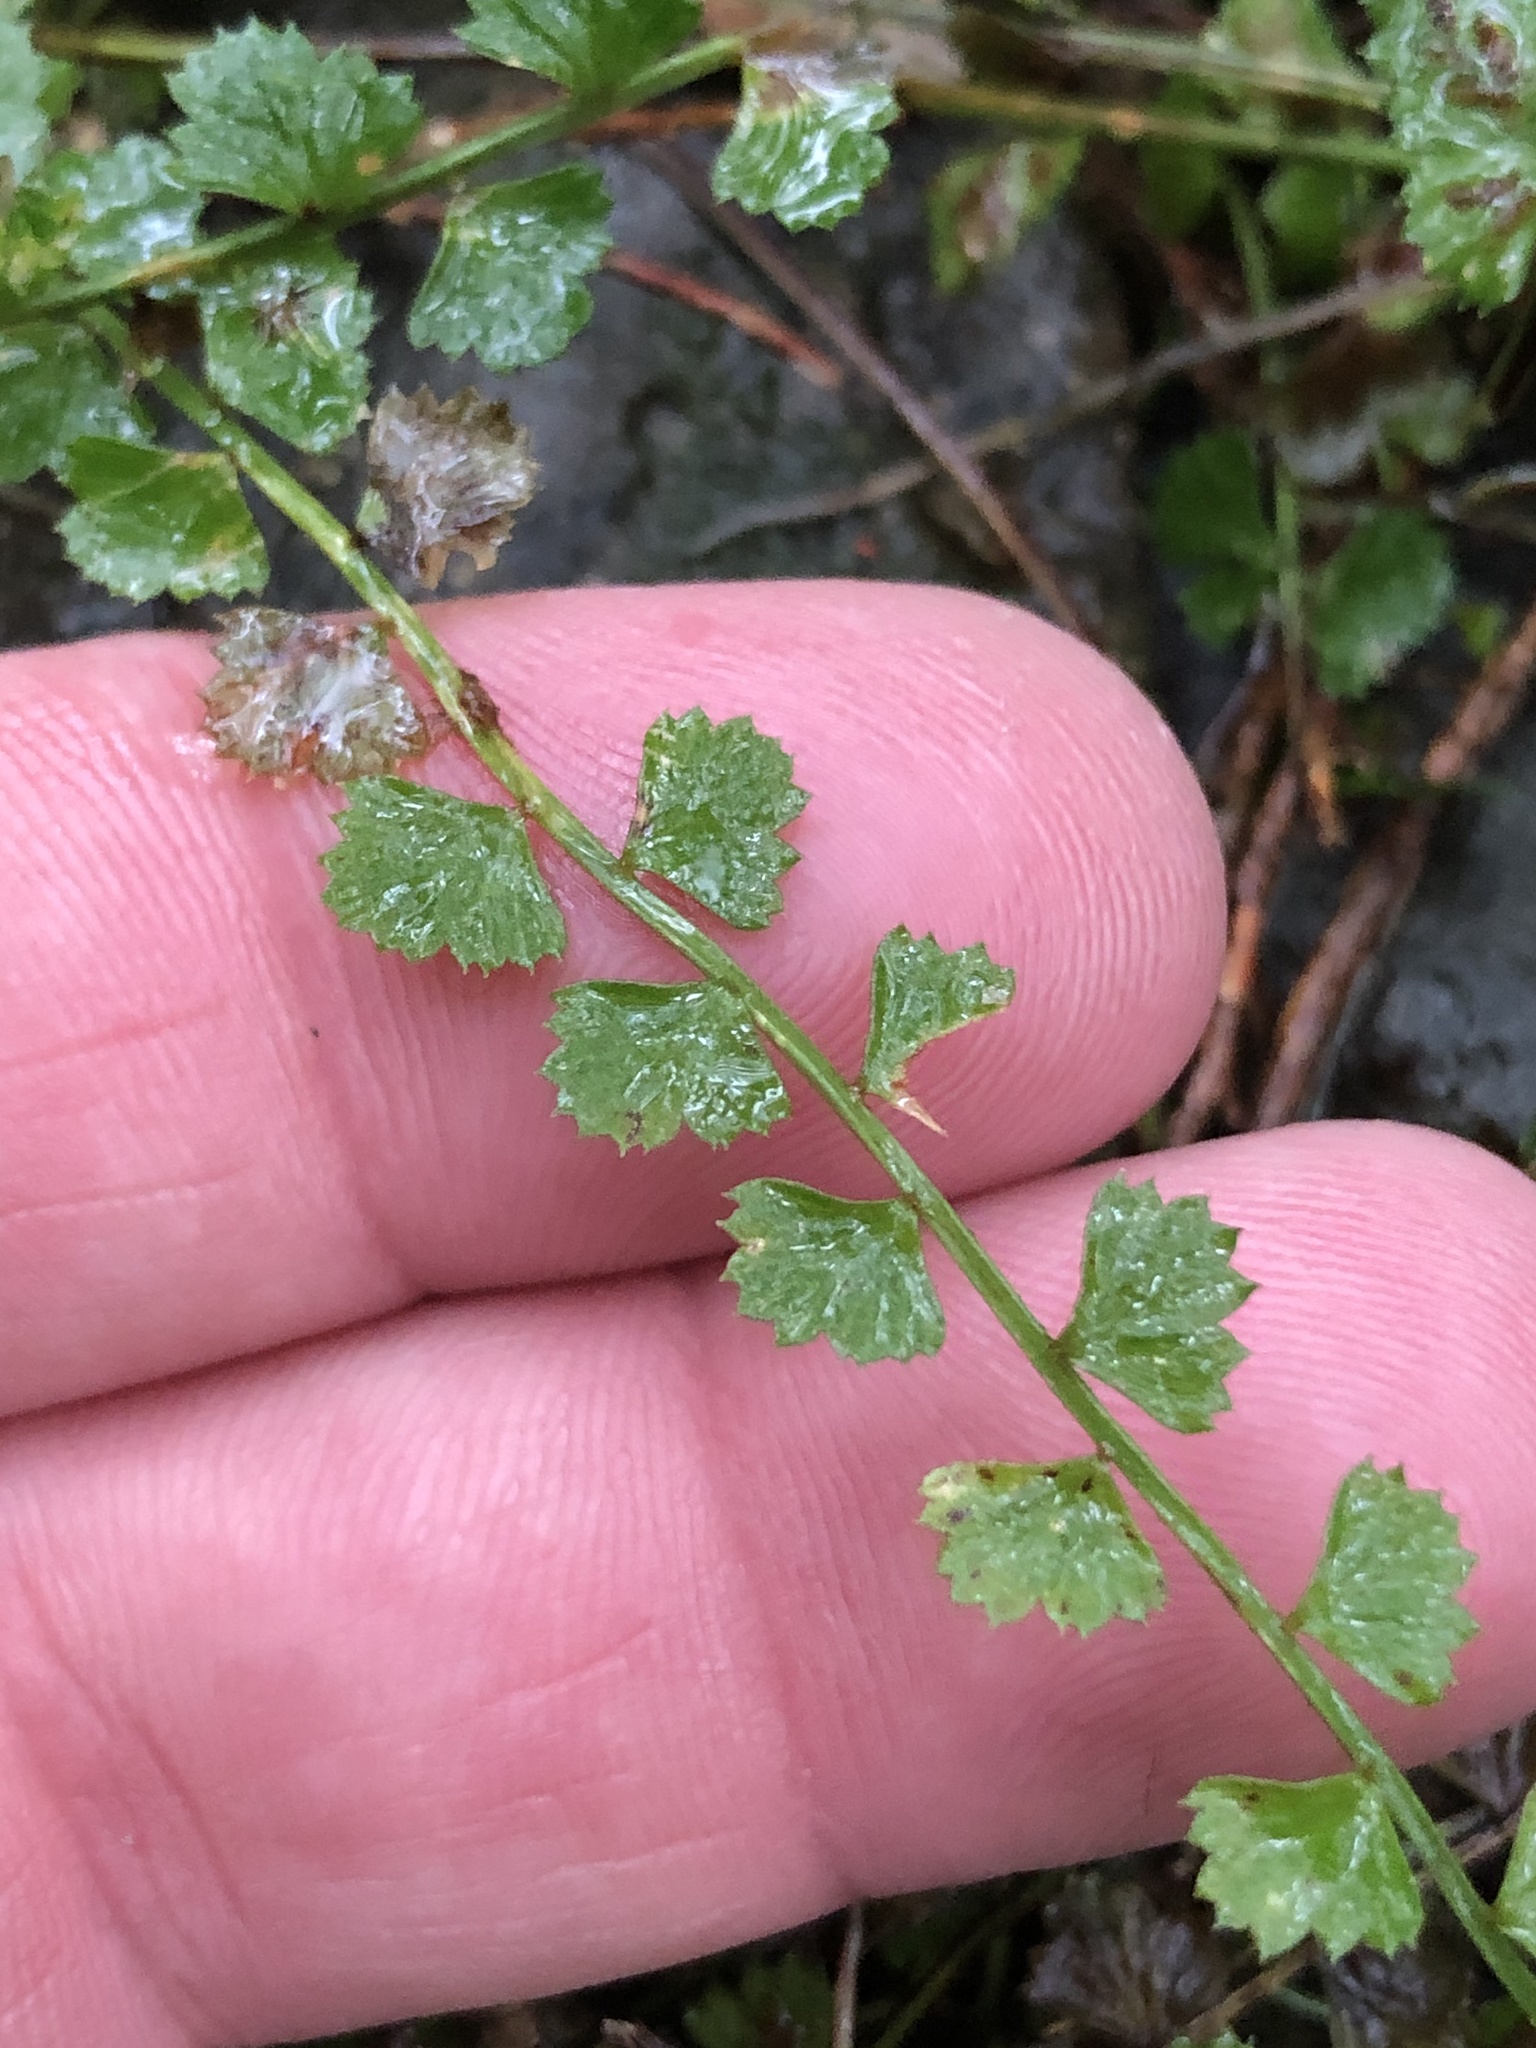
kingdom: Plantae
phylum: Tracheophyta
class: Polypodiopsida
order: Polypodiales
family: Aspleniaceae
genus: Asplenium
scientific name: Asplenium flabellifolium
